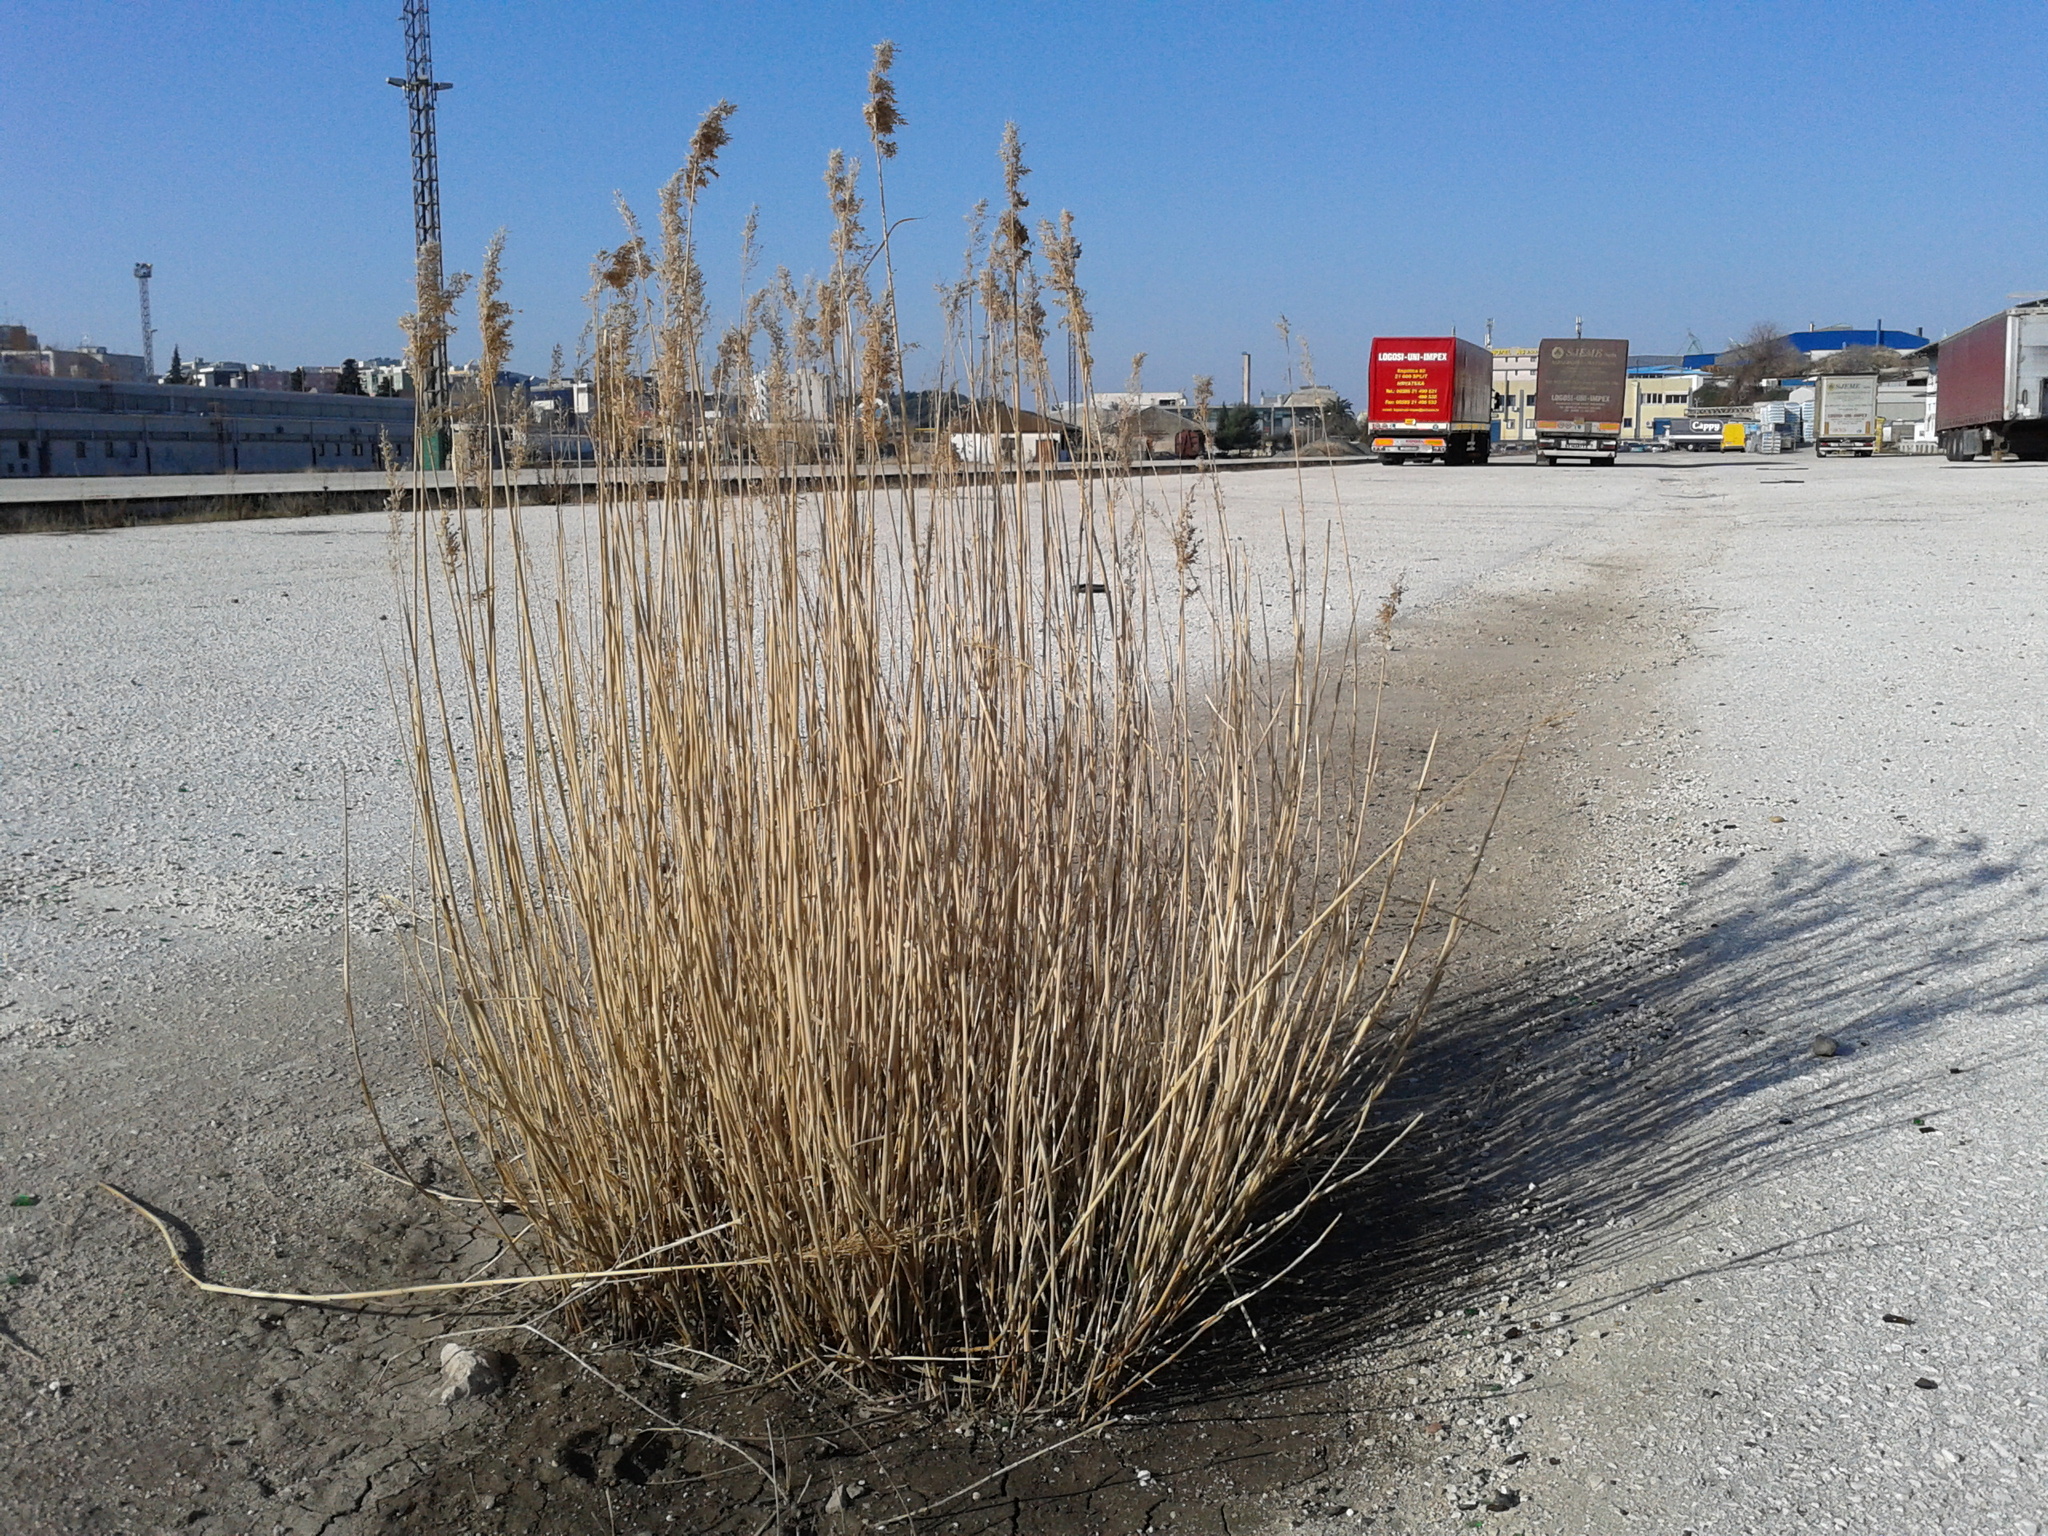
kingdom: Plantae
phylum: Tracheophyta
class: Liliopsida
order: Poales
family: Poaceae
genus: Phragmites
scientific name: Phragmites australis
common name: Common reed
